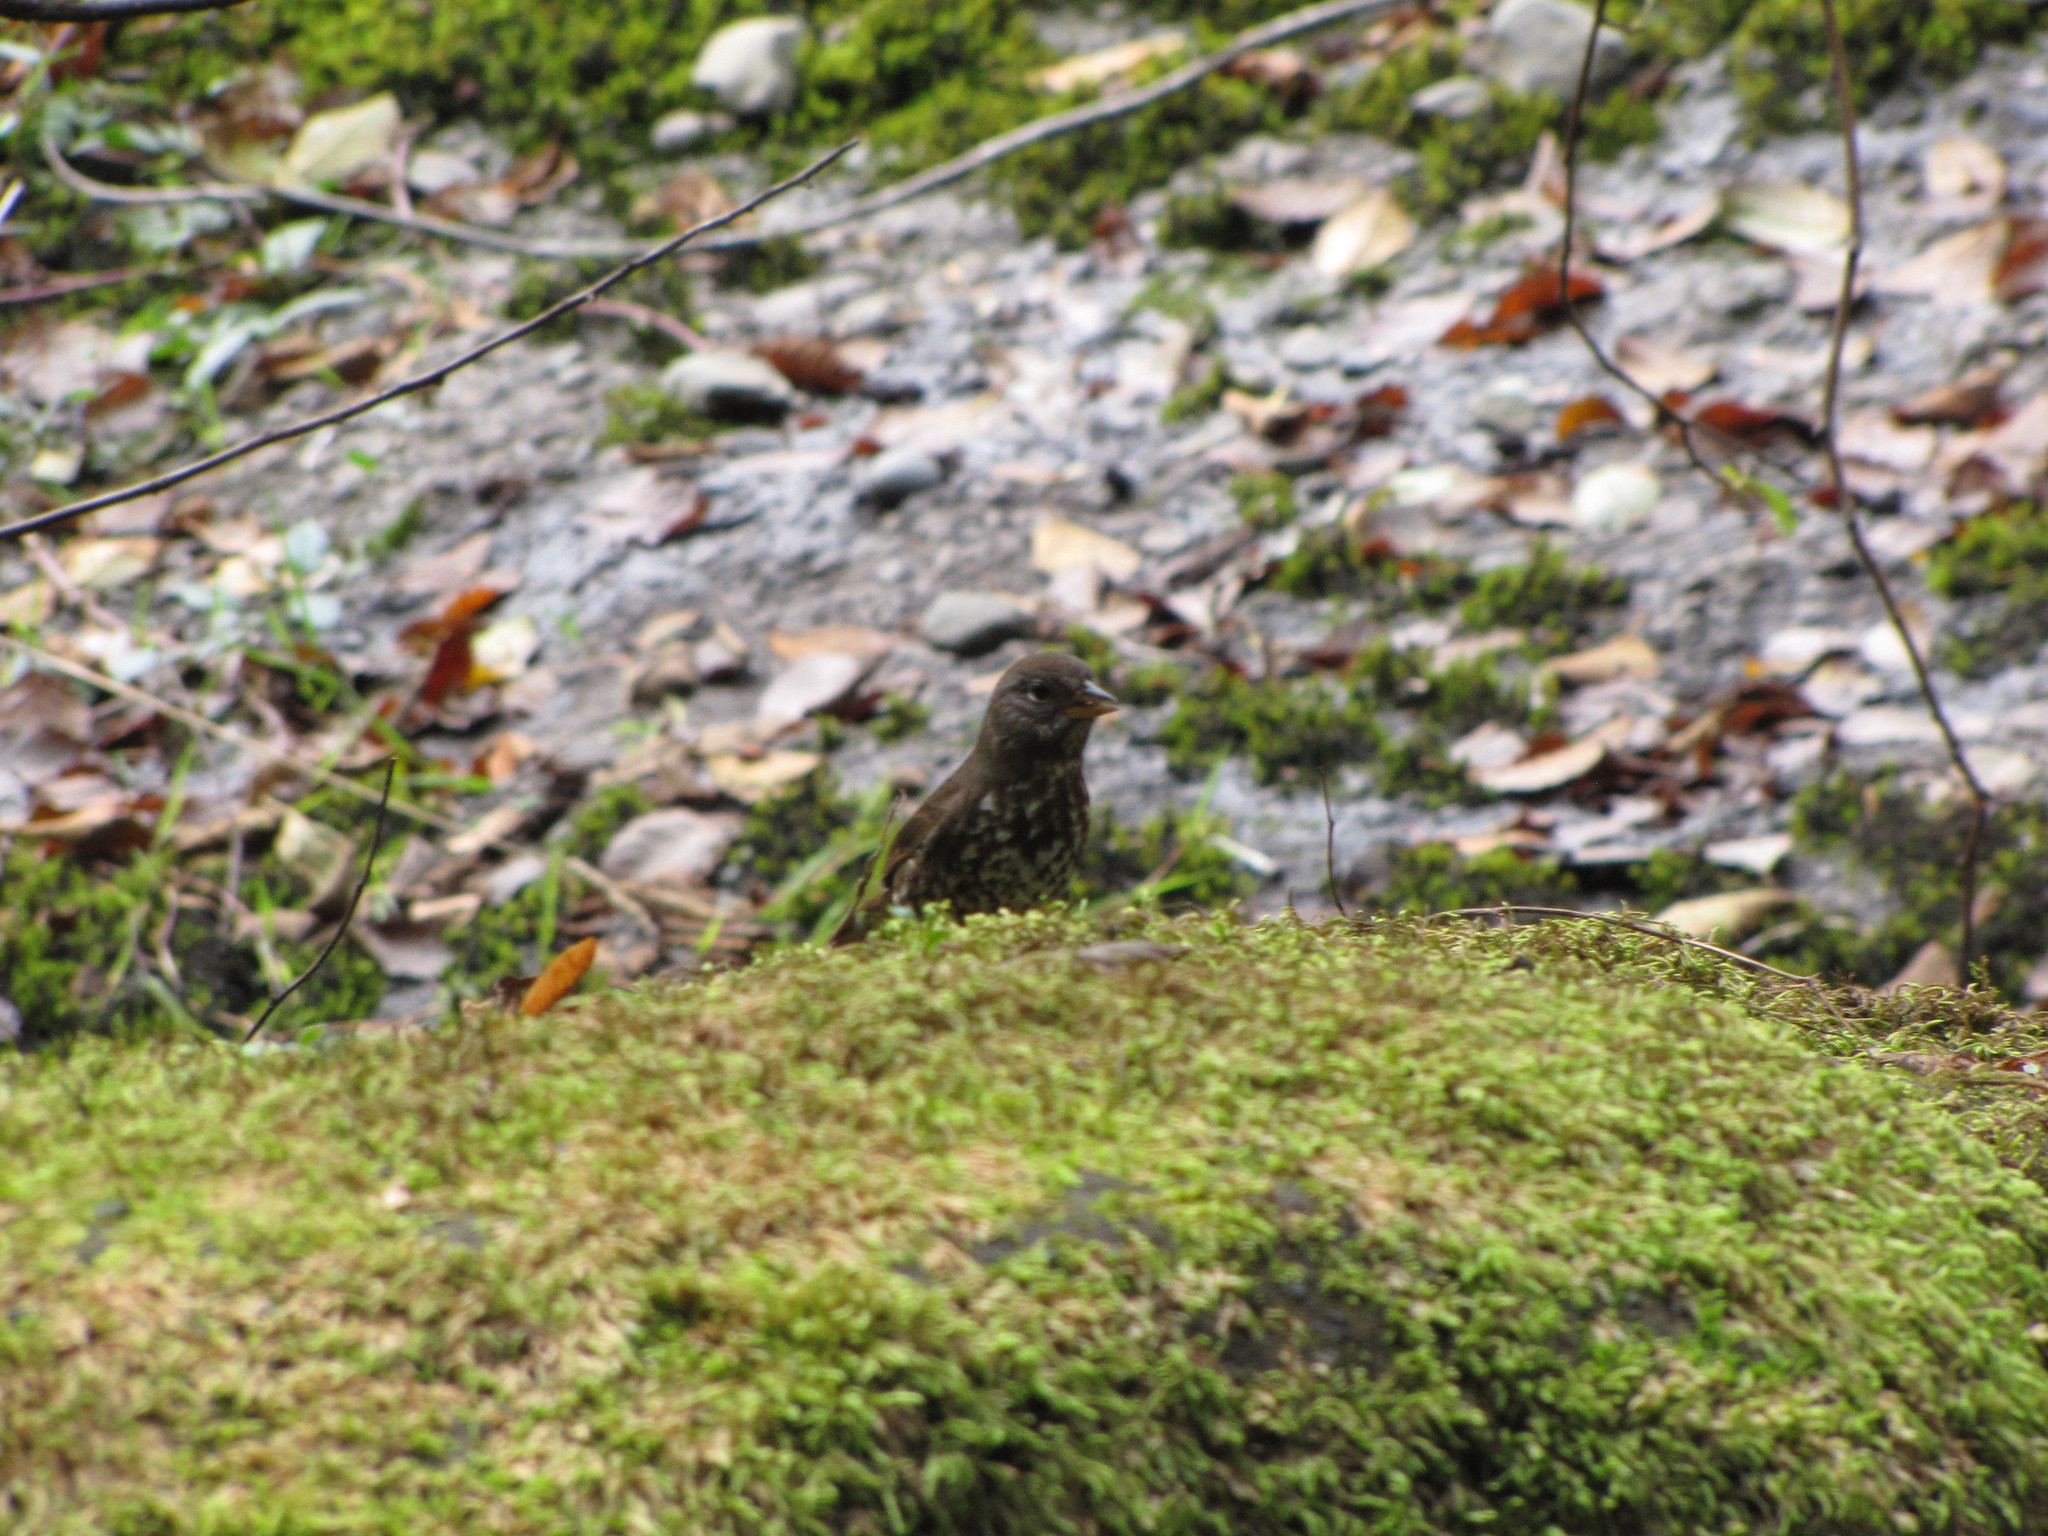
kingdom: Animalia
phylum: Chordata
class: Aves
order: Passeriformes
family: Passerellidae
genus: Passerella
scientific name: Passerella iliaca
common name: Fox sparrow
